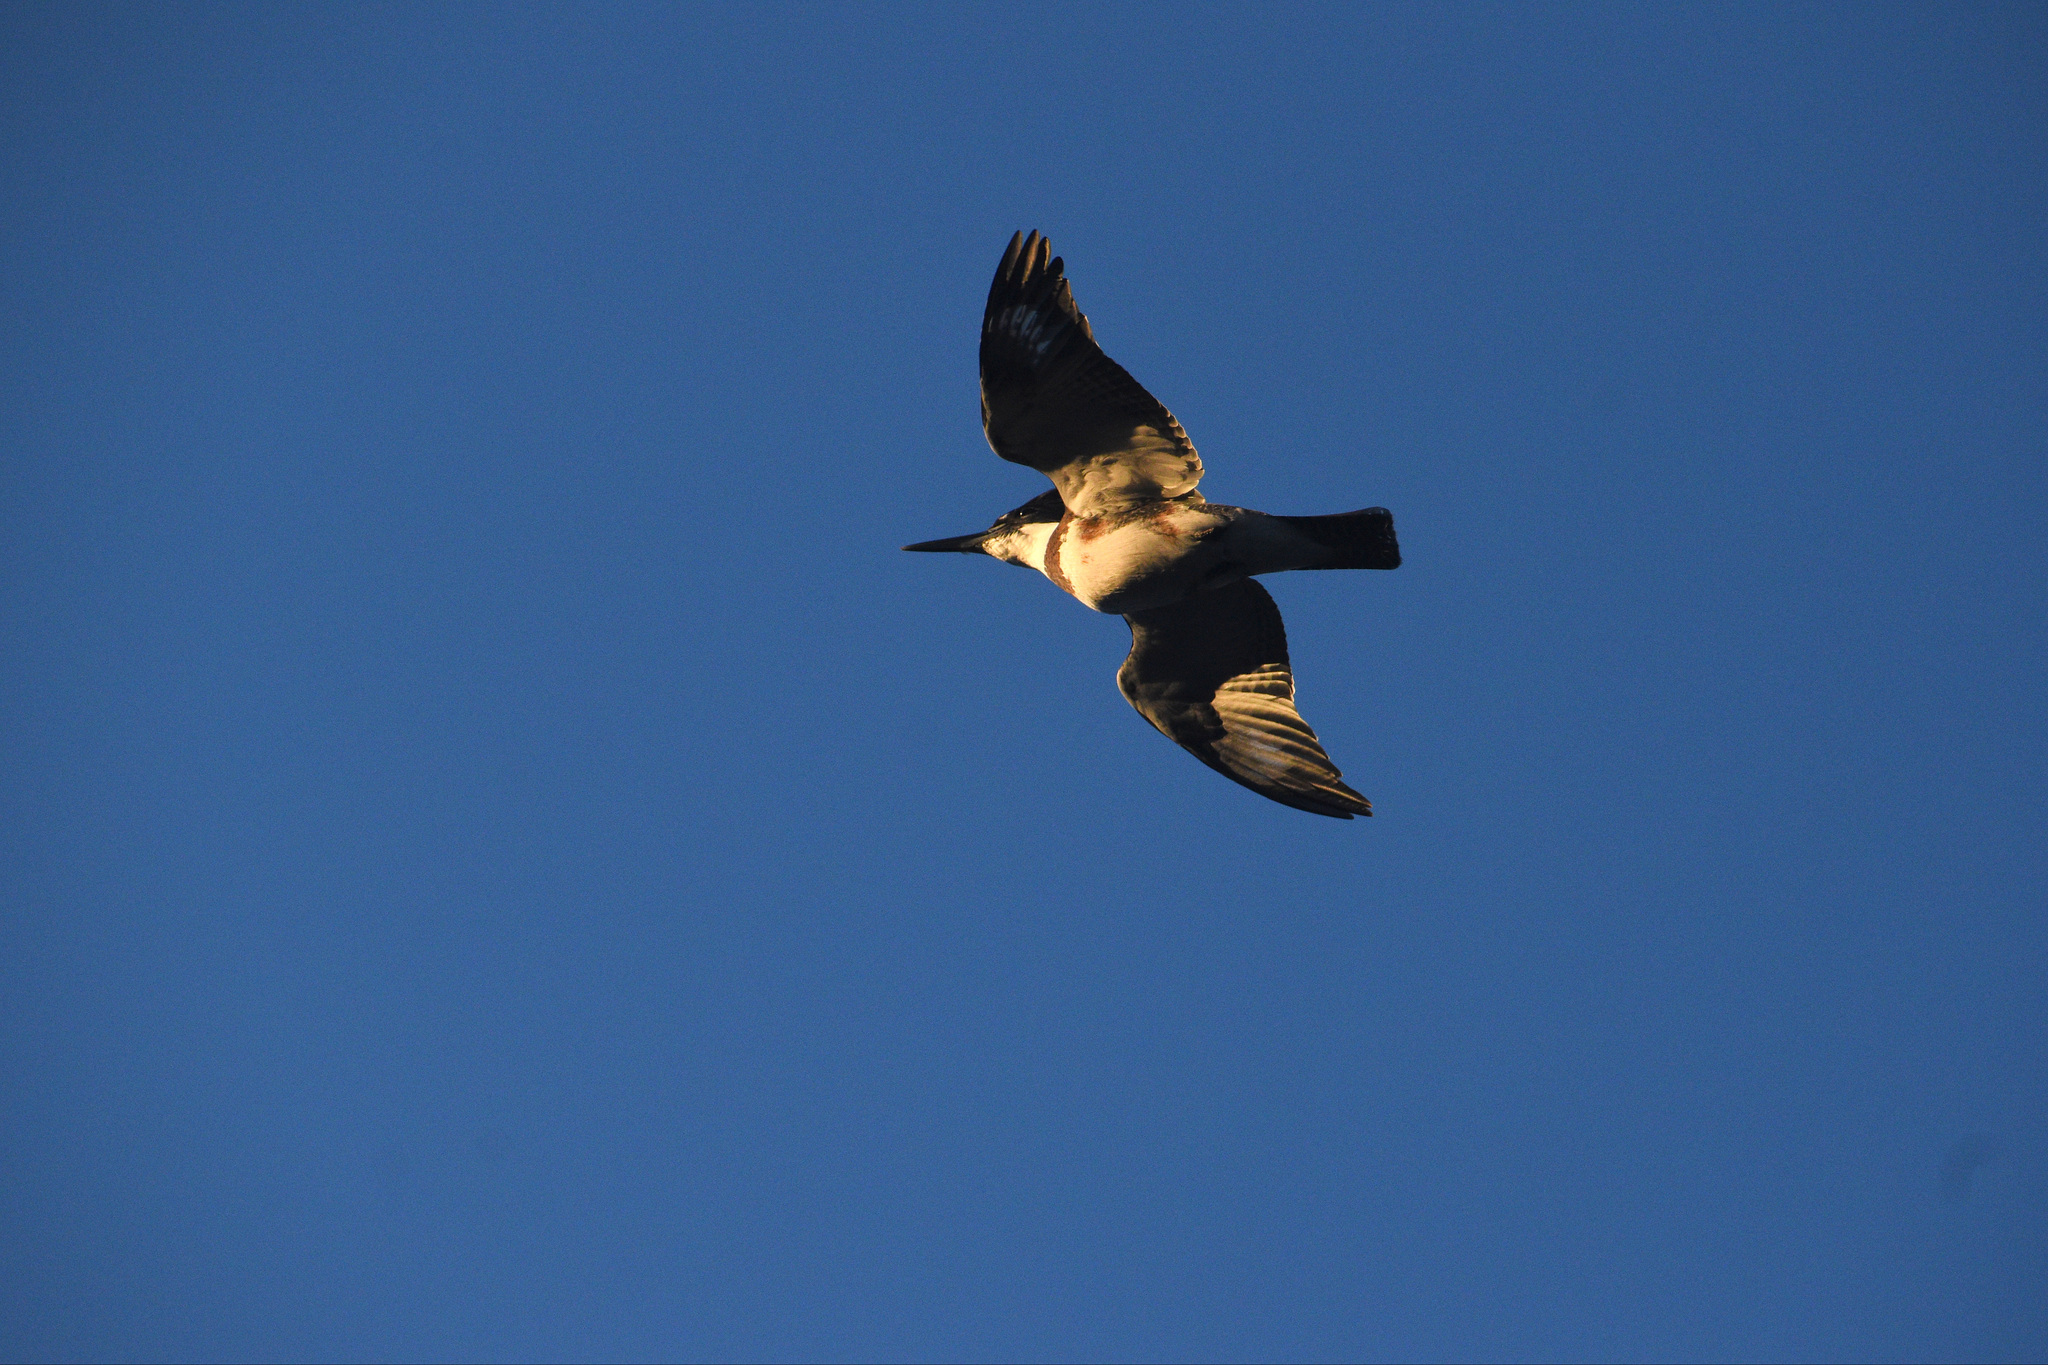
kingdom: Animalia
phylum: Chordata
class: Aves
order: Coraciiformes
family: Alcedinidae
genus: Megaceryle
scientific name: Megaceryle alcyon
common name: Belted kingfisher
